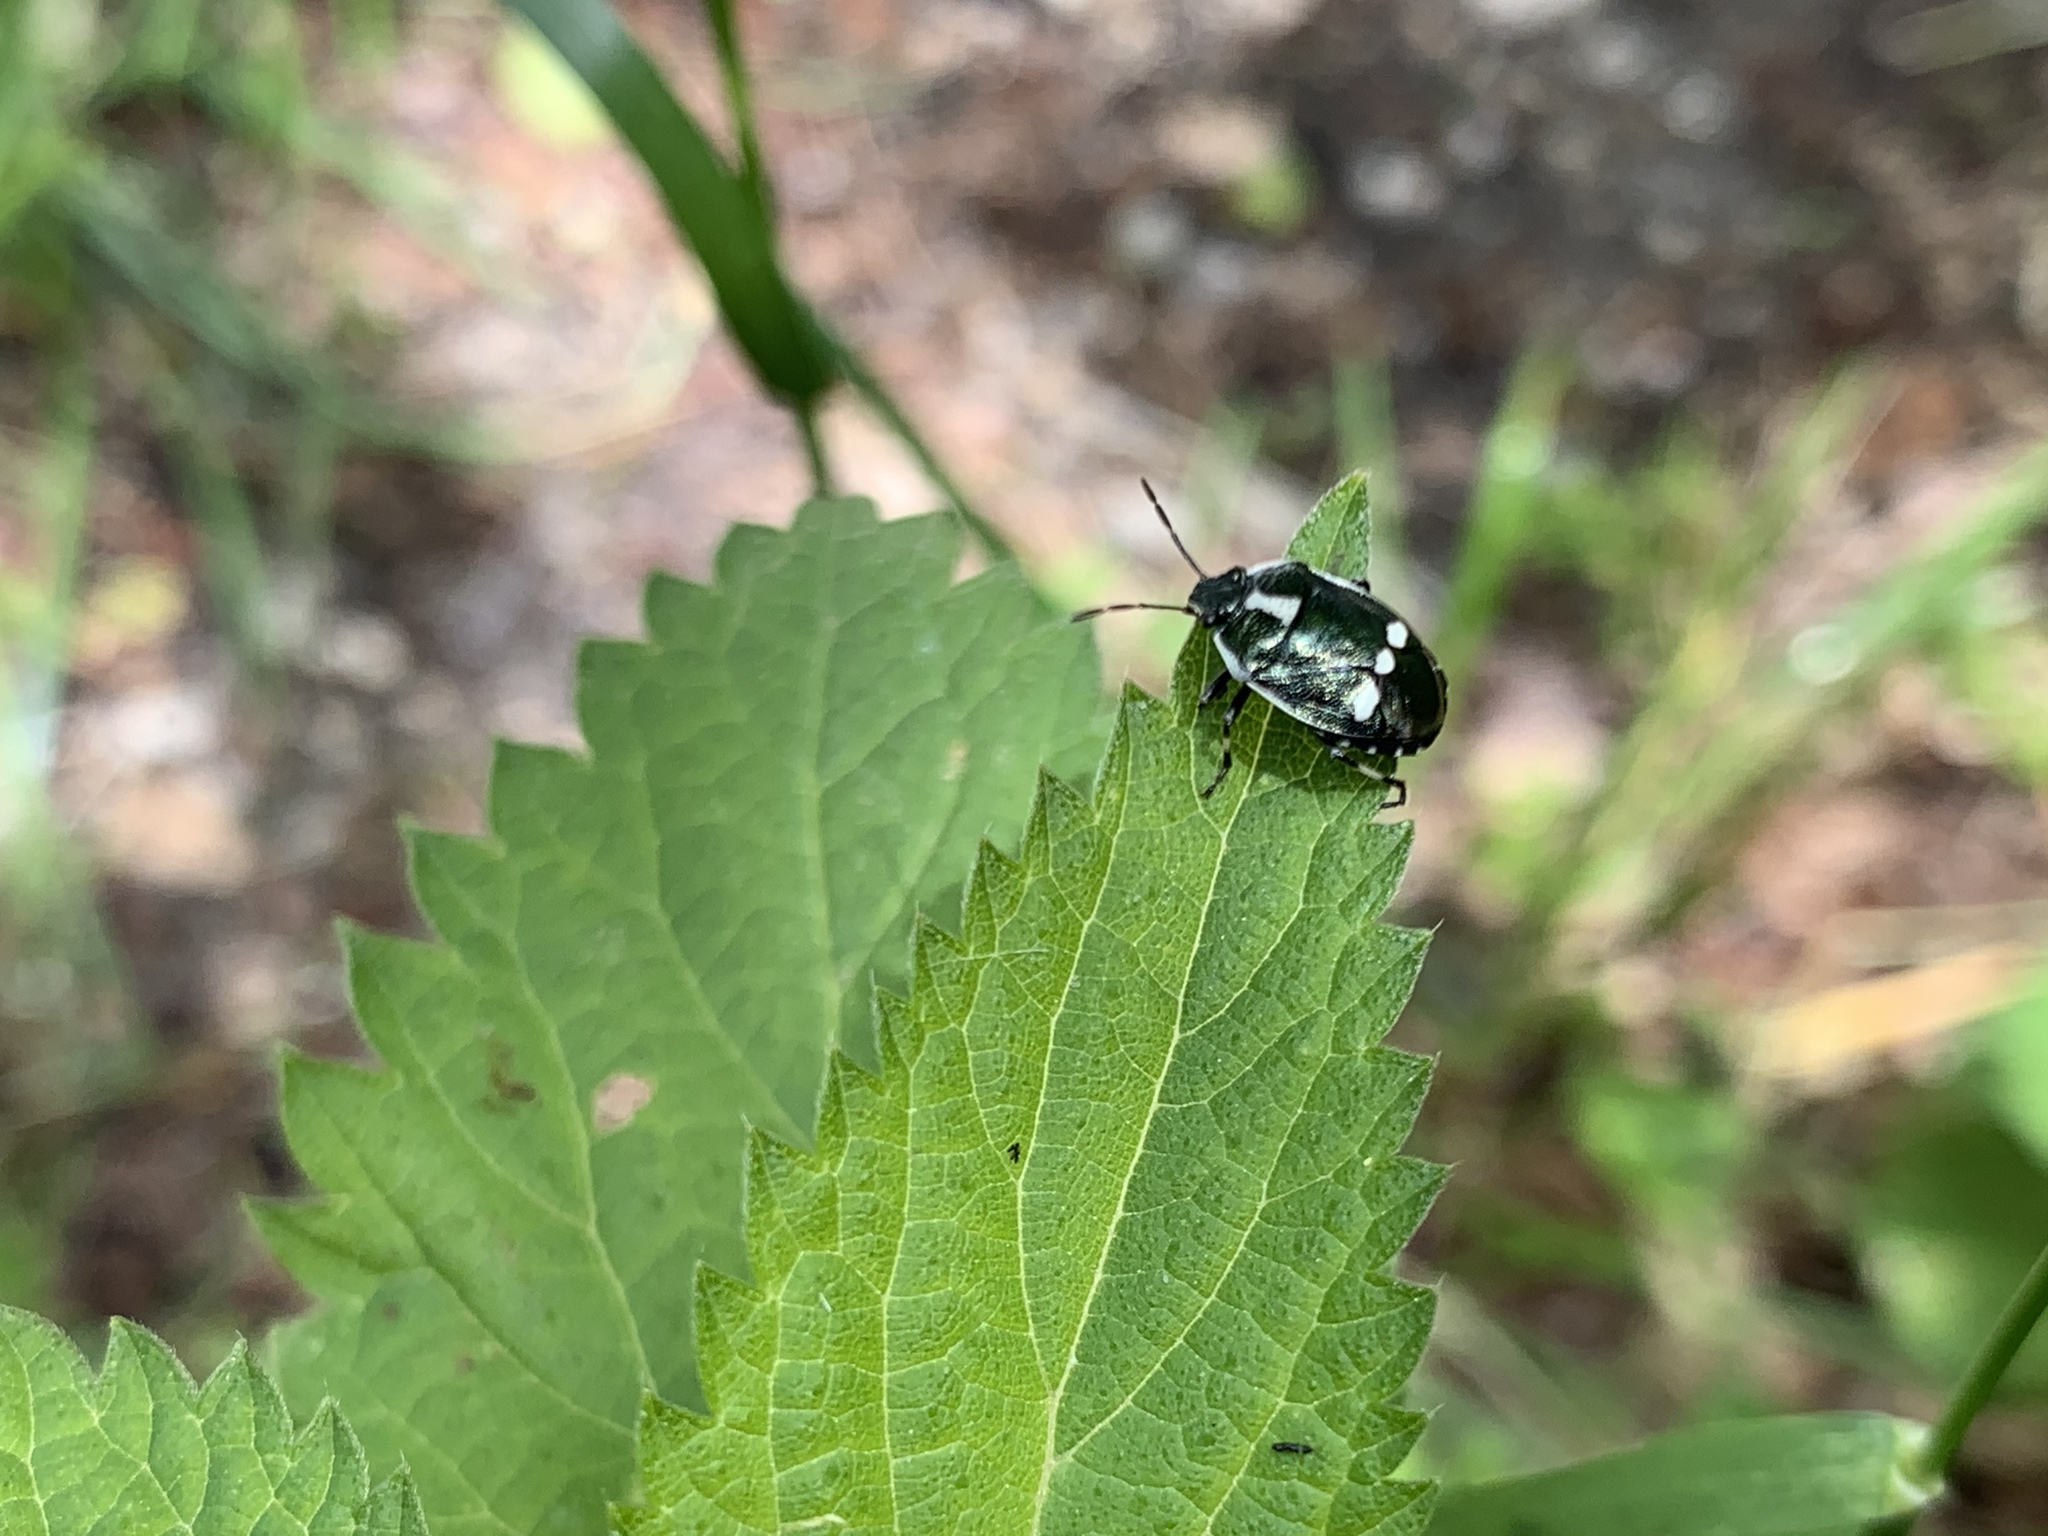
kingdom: Animalia
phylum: Arthropoda
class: Insecta
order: Hemiptera
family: Pentatomidae
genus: Eurydema
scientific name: Eurydema oleracea
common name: Cabbage bug
